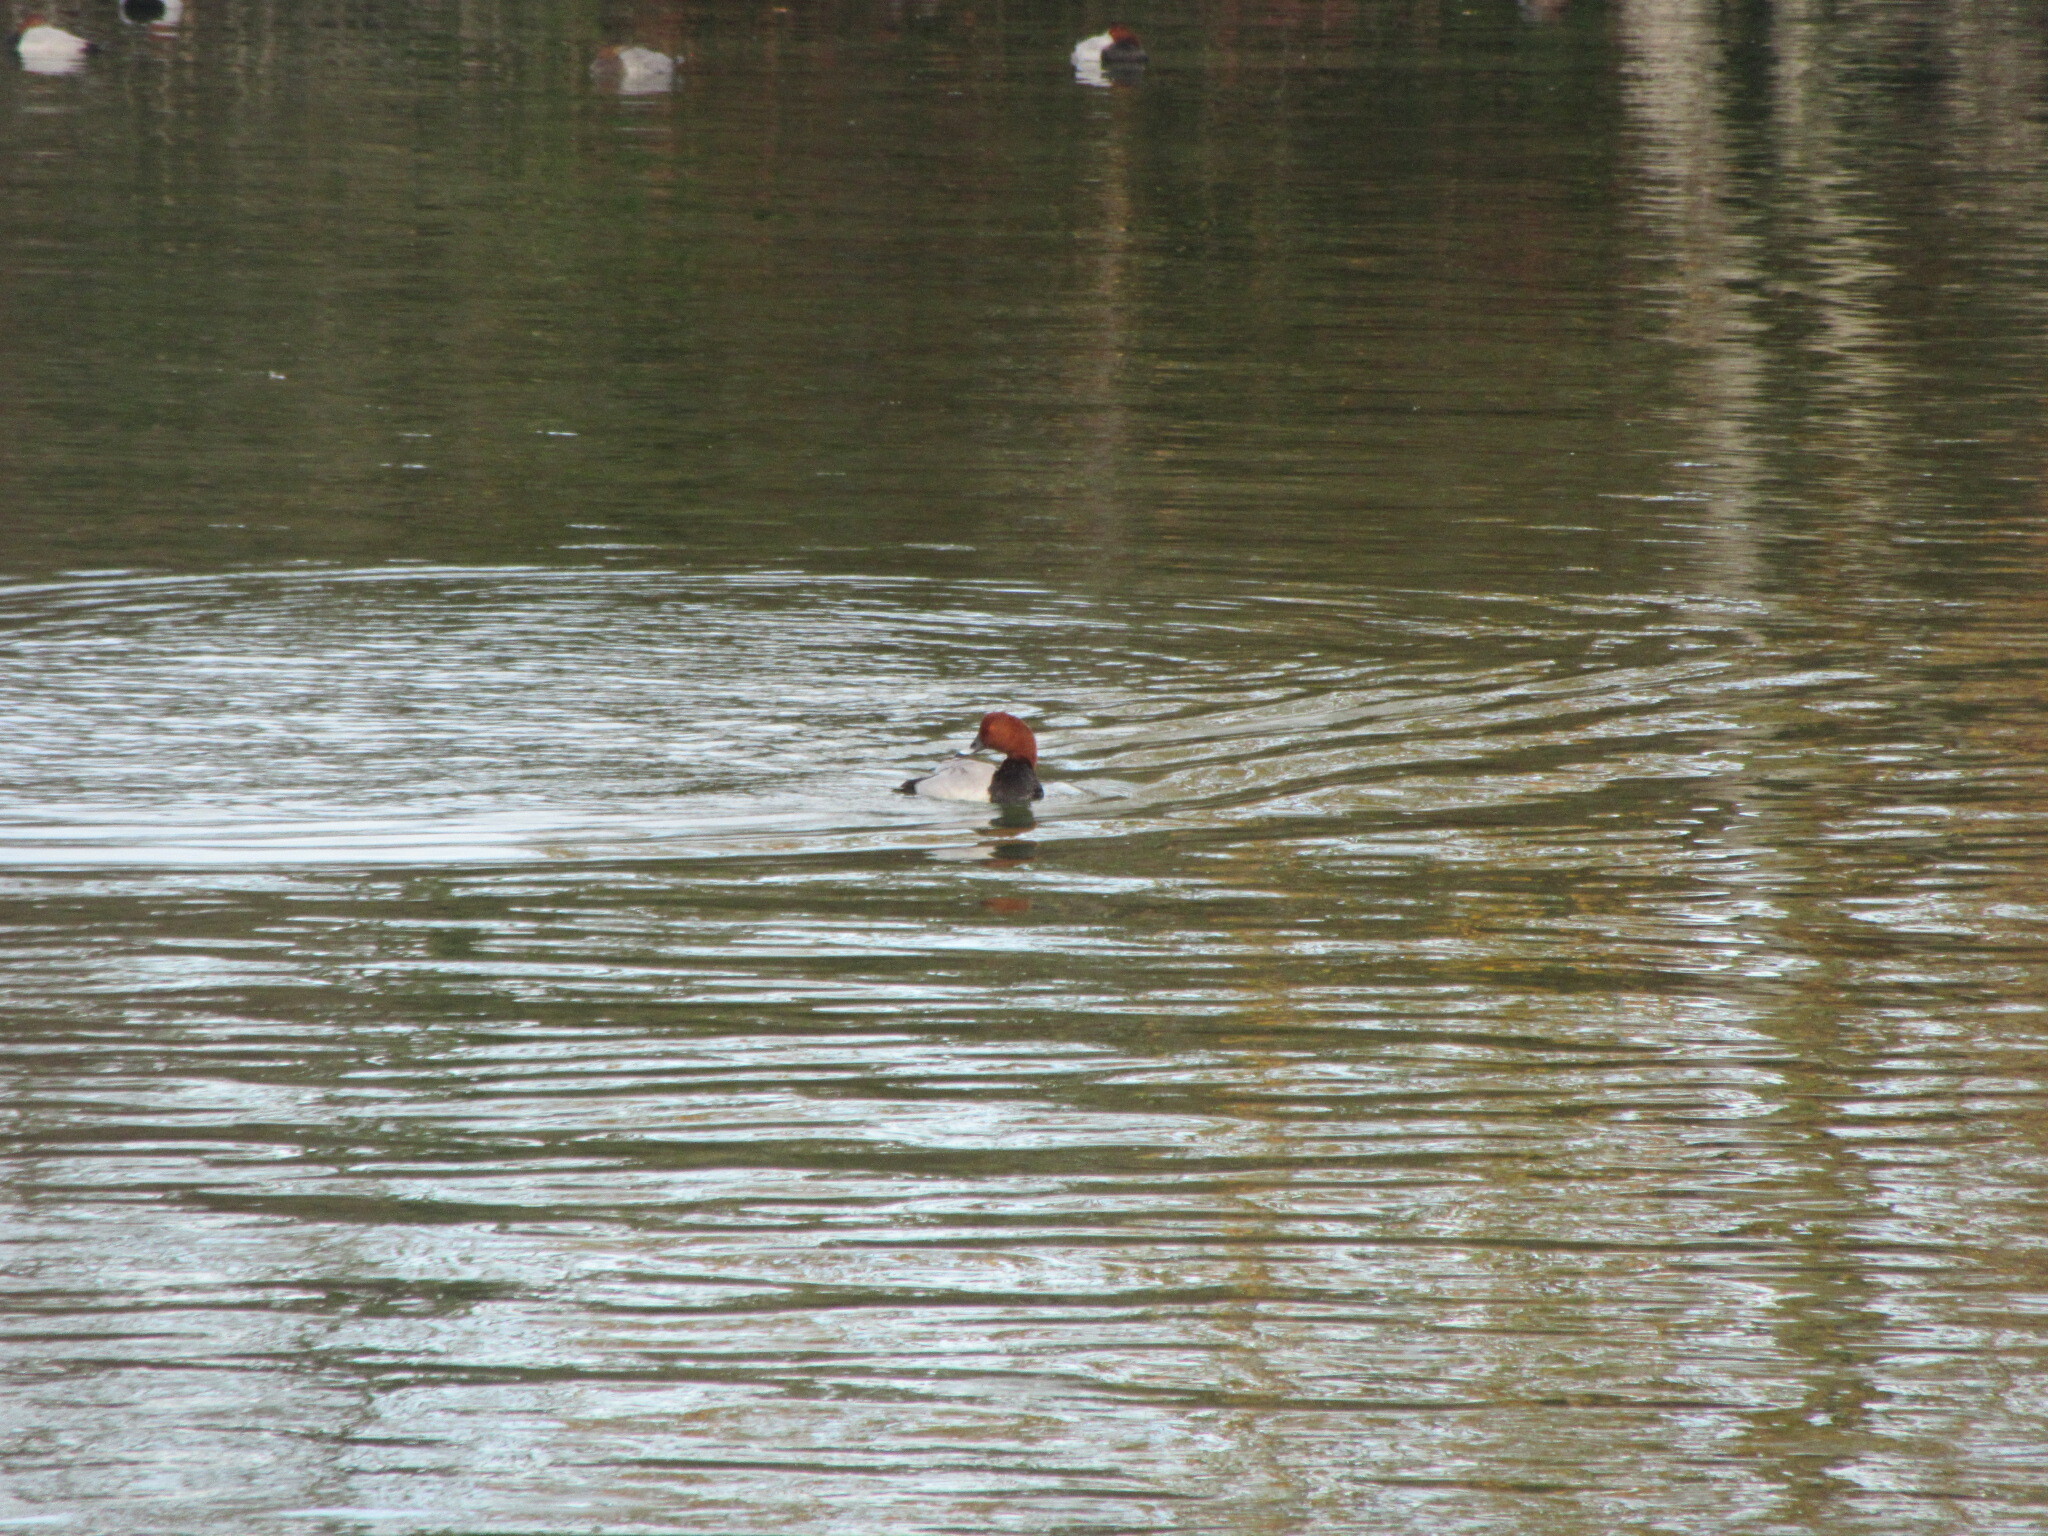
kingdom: Animalia
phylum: Chordata
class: Aves
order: Anseriformes
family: Anatidae
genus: Aythya
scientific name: Aythya ferina
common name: Common pochard
